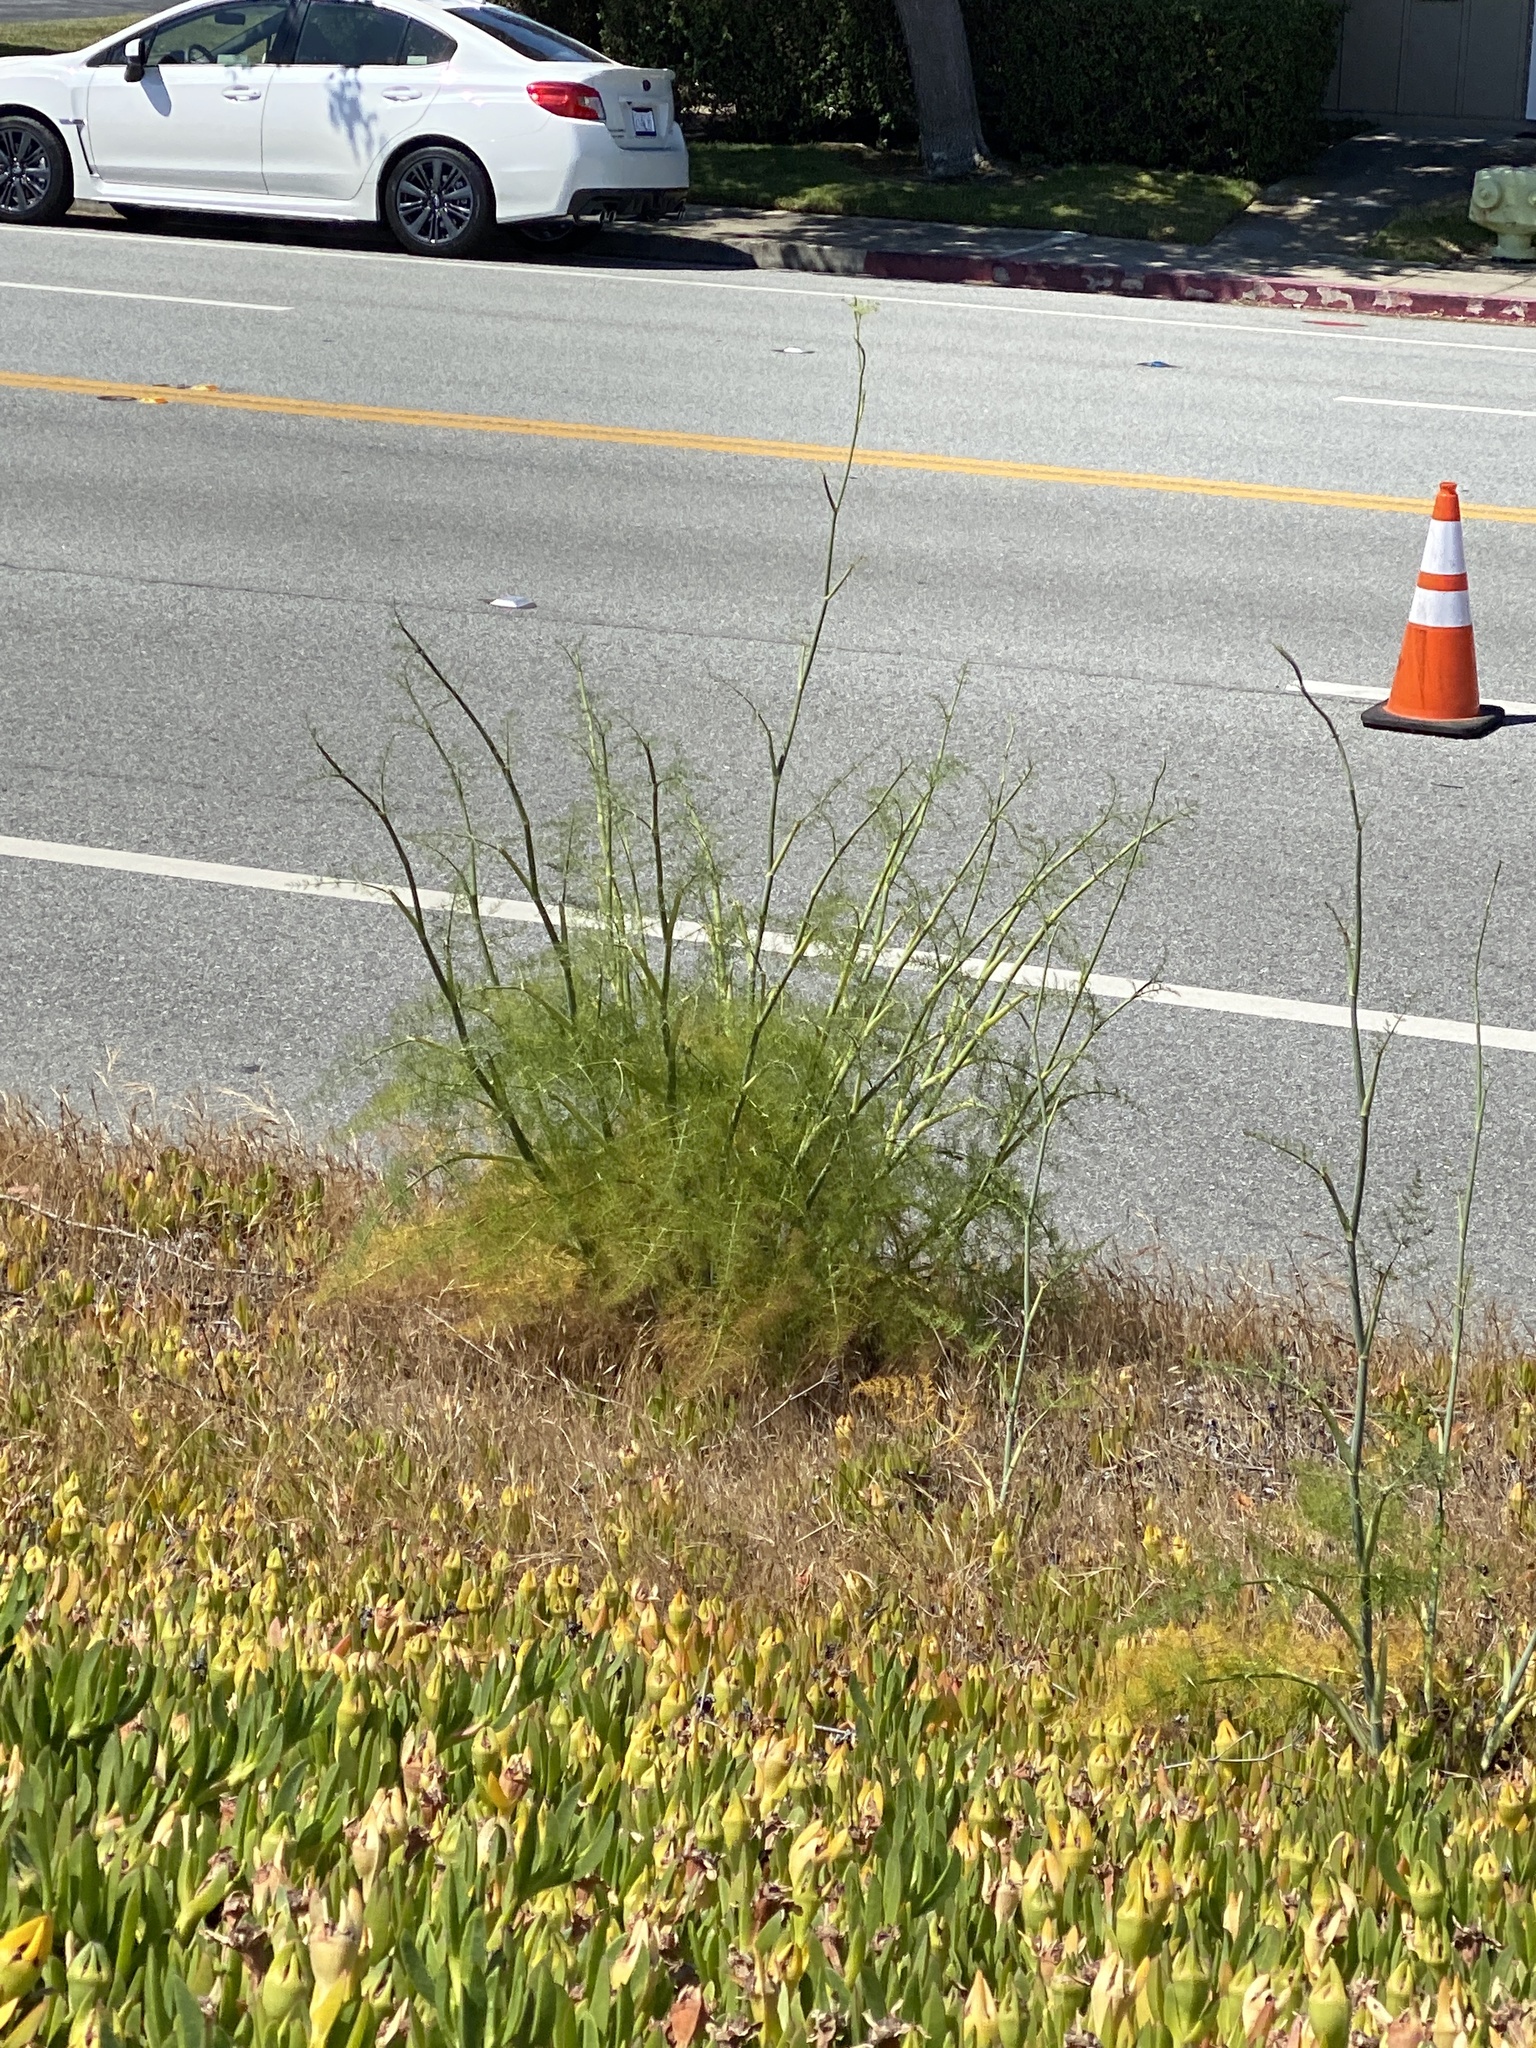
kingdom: Plantae
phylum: Tracheophyta
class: Magnoliopsida
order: Apiales
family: Apiaceae
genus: Foeniculum
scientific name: Foeniculum vulgare
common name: Fennel
